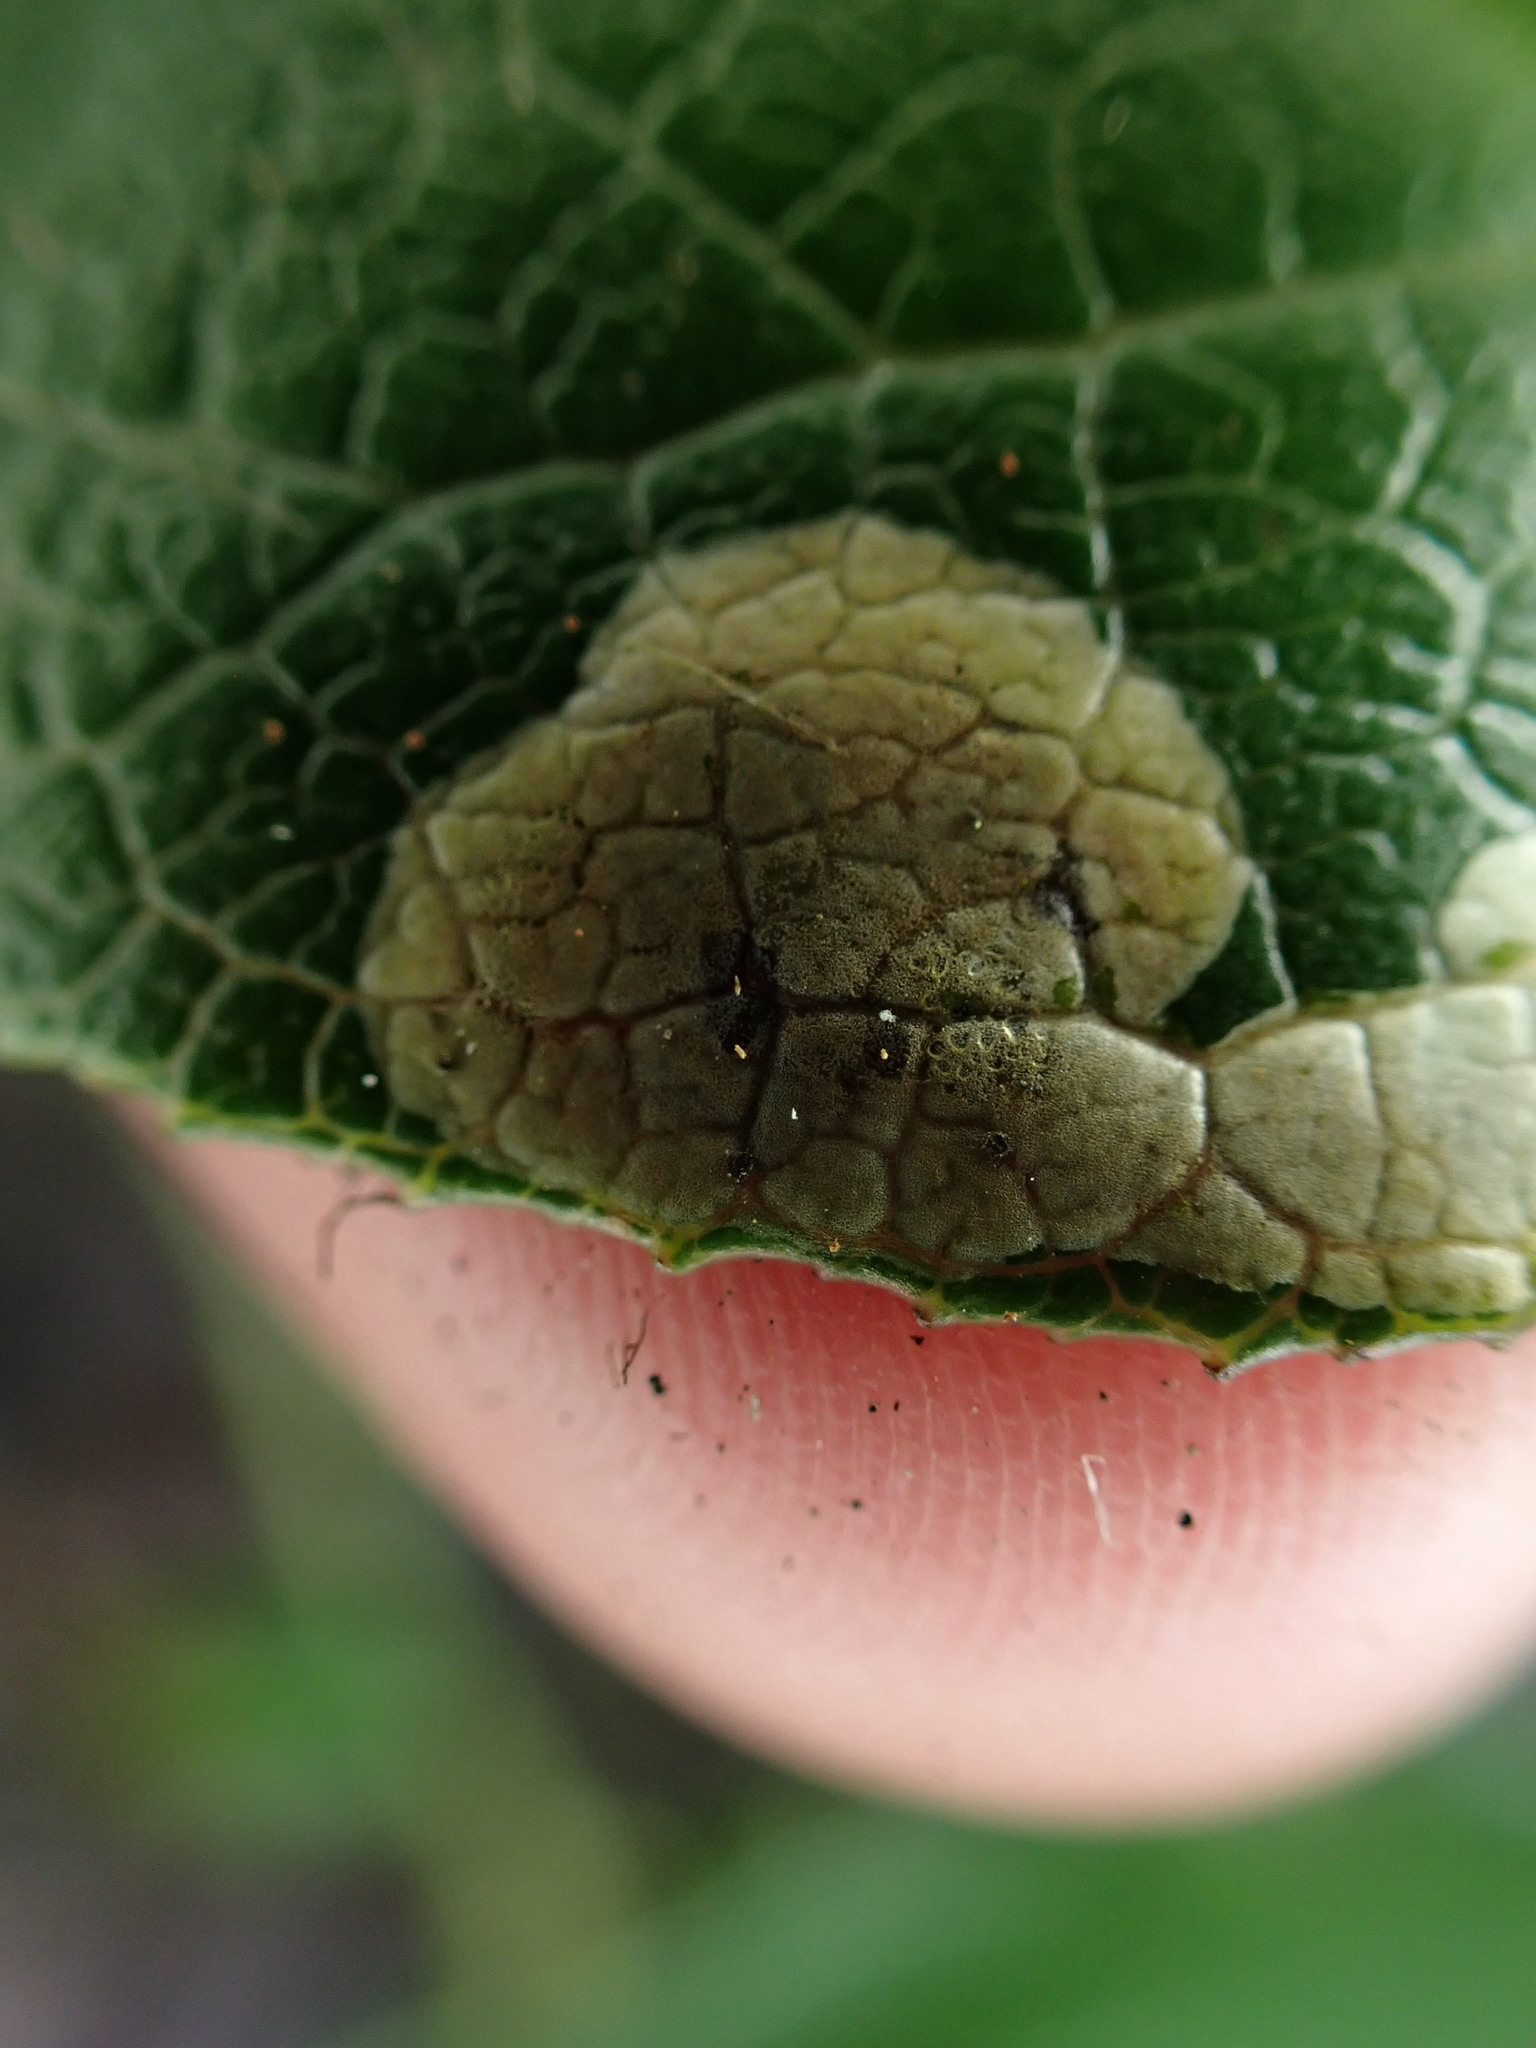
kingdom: Animalia
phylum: Arthropoda
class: Insecta
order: Lepidoptera
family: Gracillariidae
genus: Cameraria
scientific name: Cameraria gaultheriella
